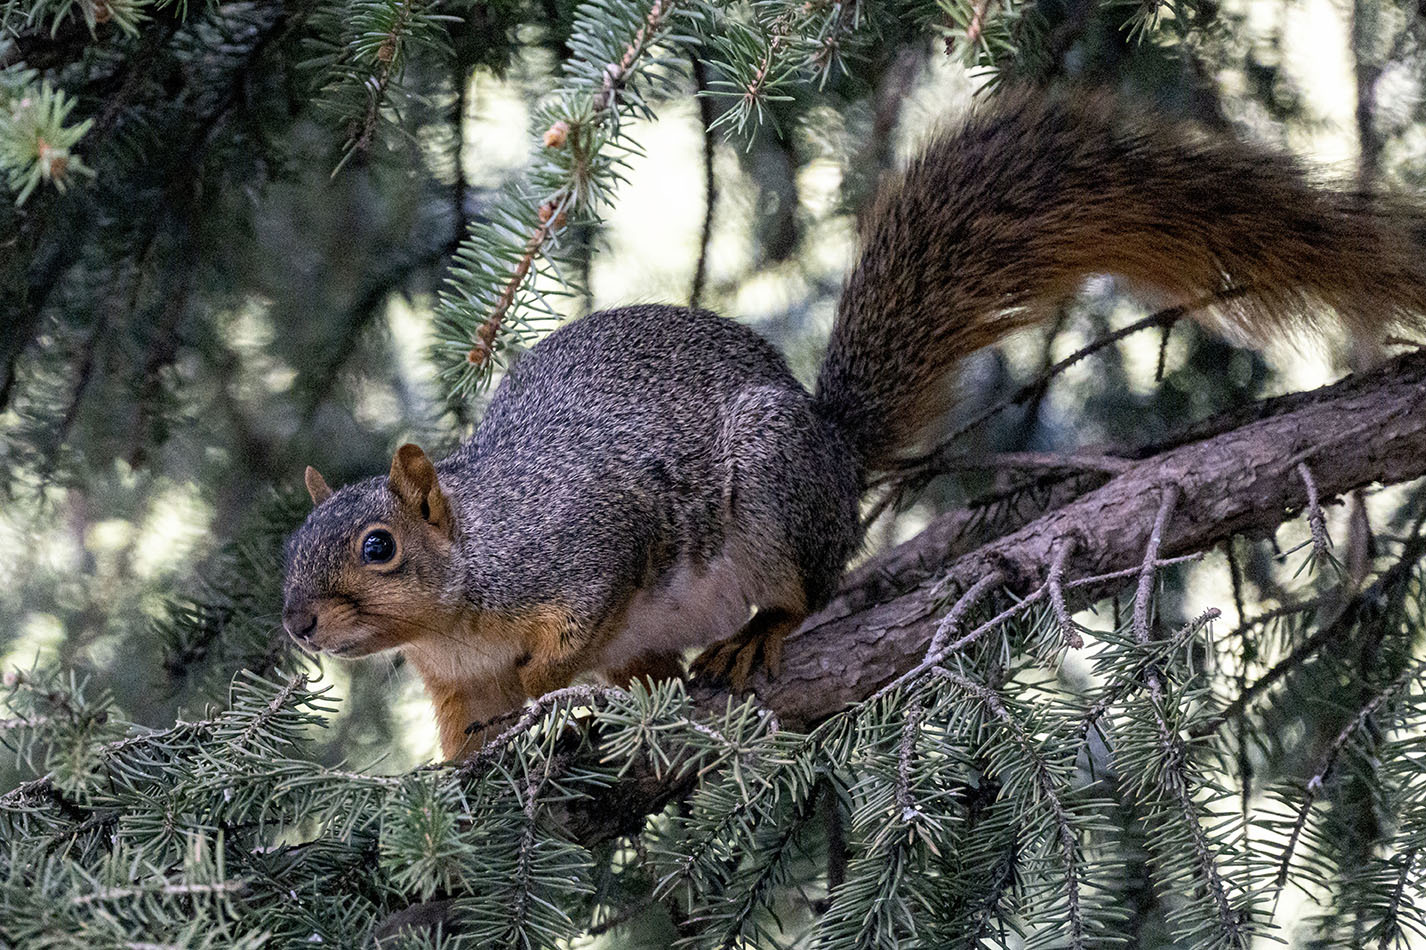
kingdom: Animalia
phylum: Chordata
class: Mammalia
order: Rodentia
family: Sciuridae
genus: Sciurus
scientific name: Sciurus niger
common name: Fox squirrel
